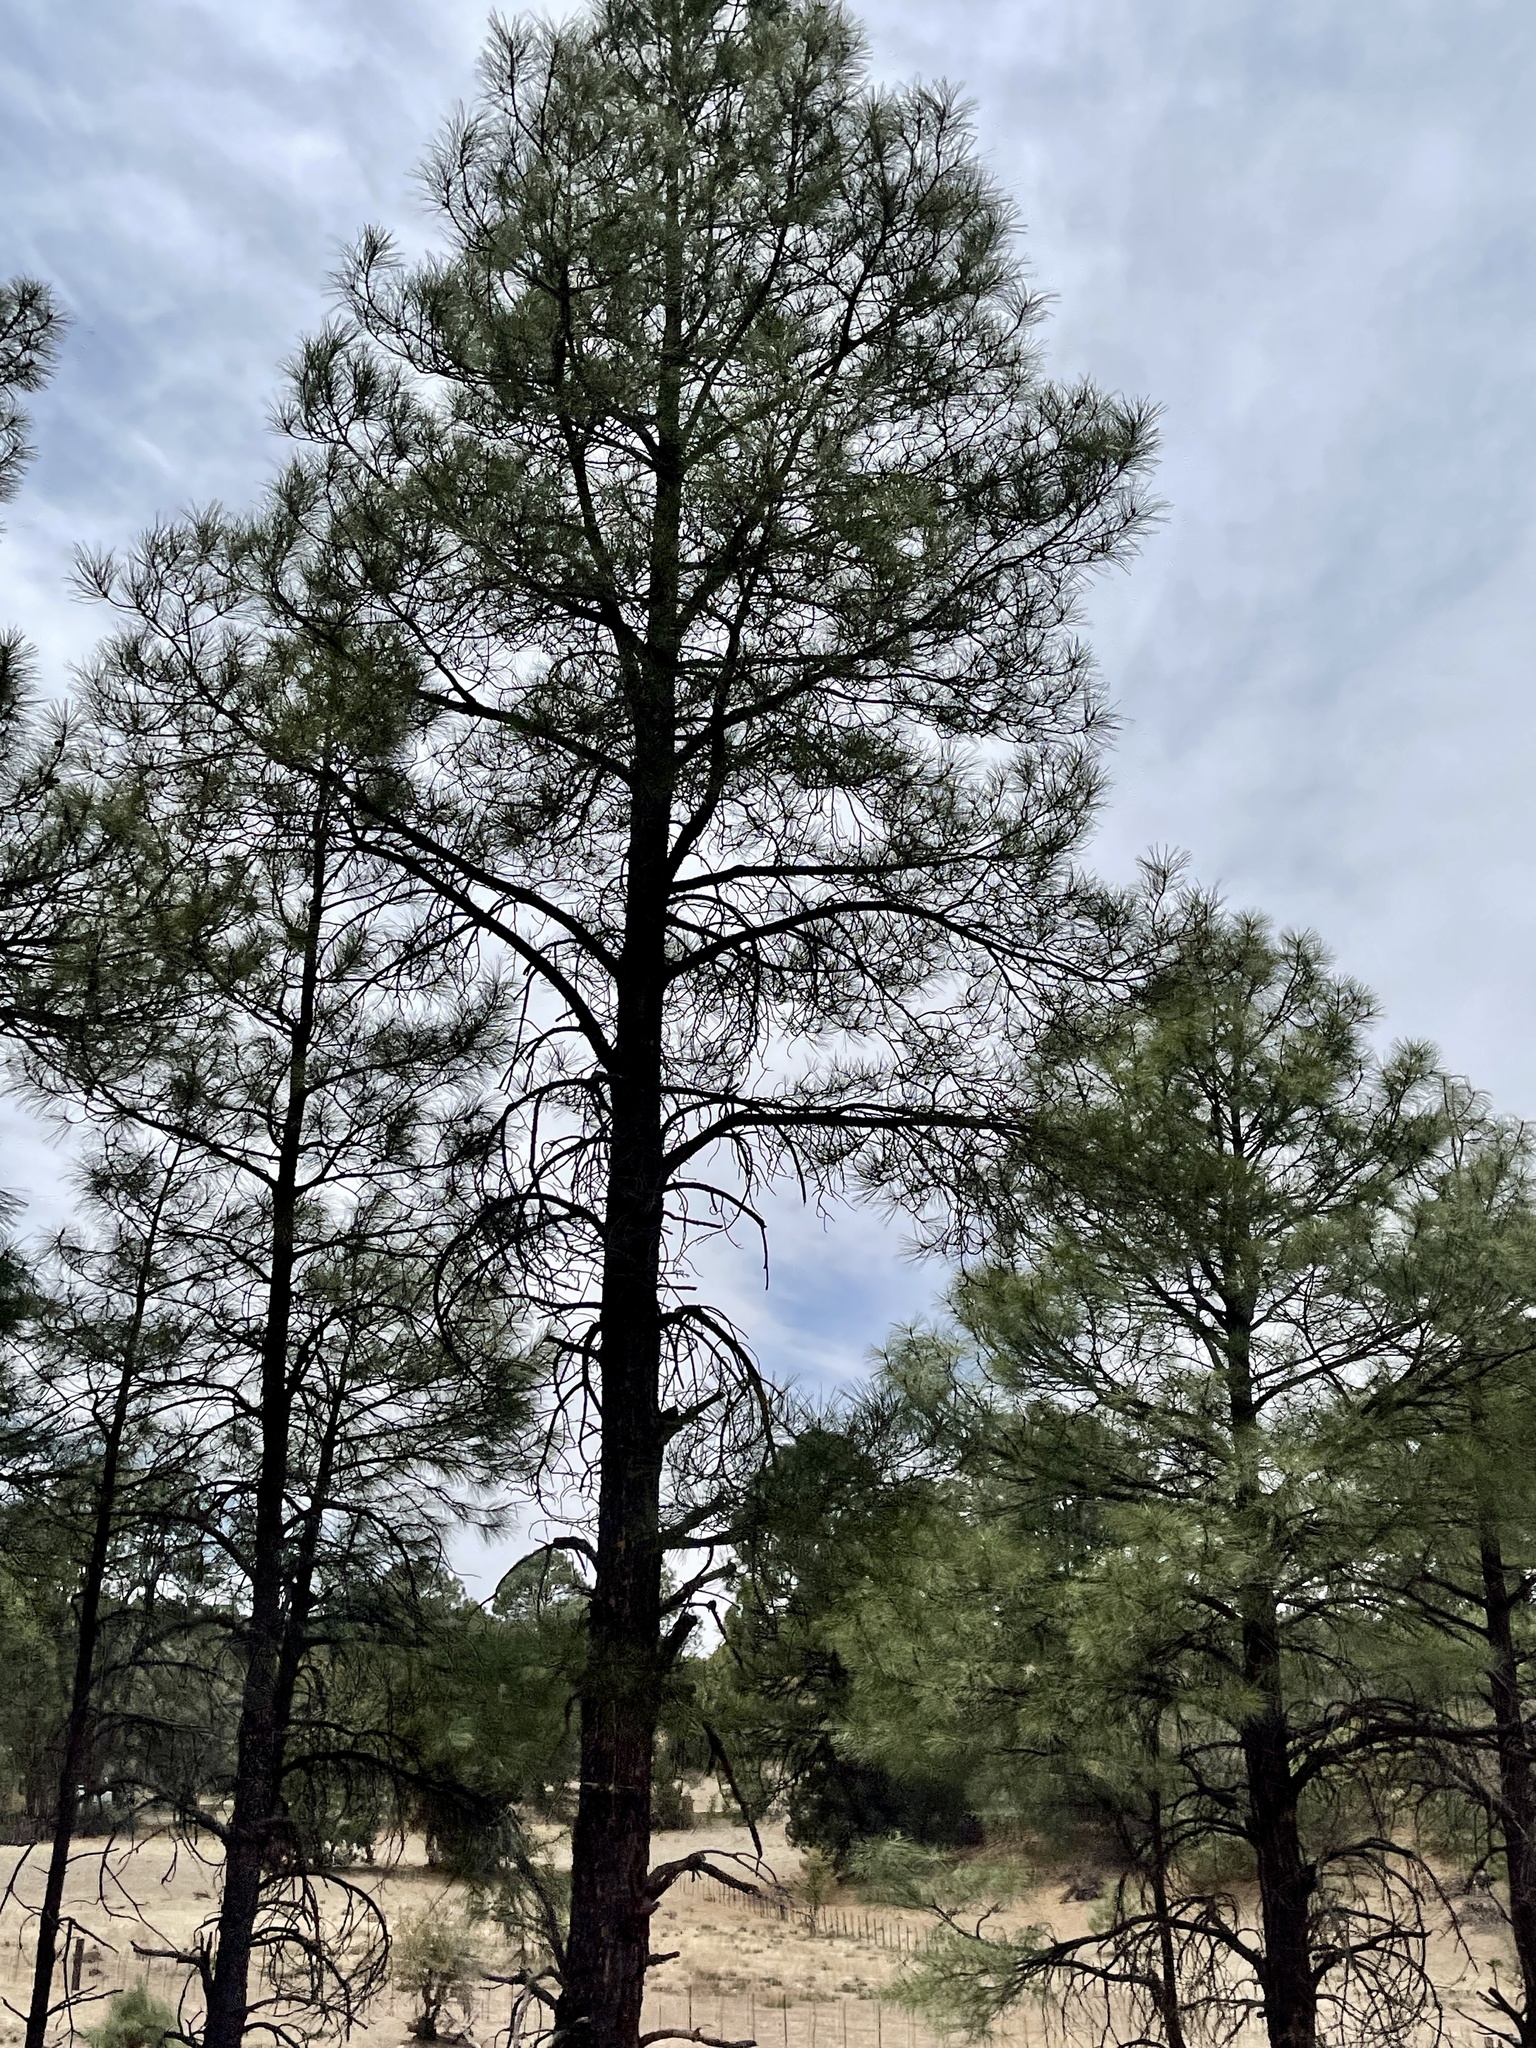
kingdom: Plantae
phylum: Tracheophyta
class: Pinopsida
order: Pinales
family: Pinaceae
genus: Pinus
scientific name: Pinus ponderosa
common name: Western yellow-pine
